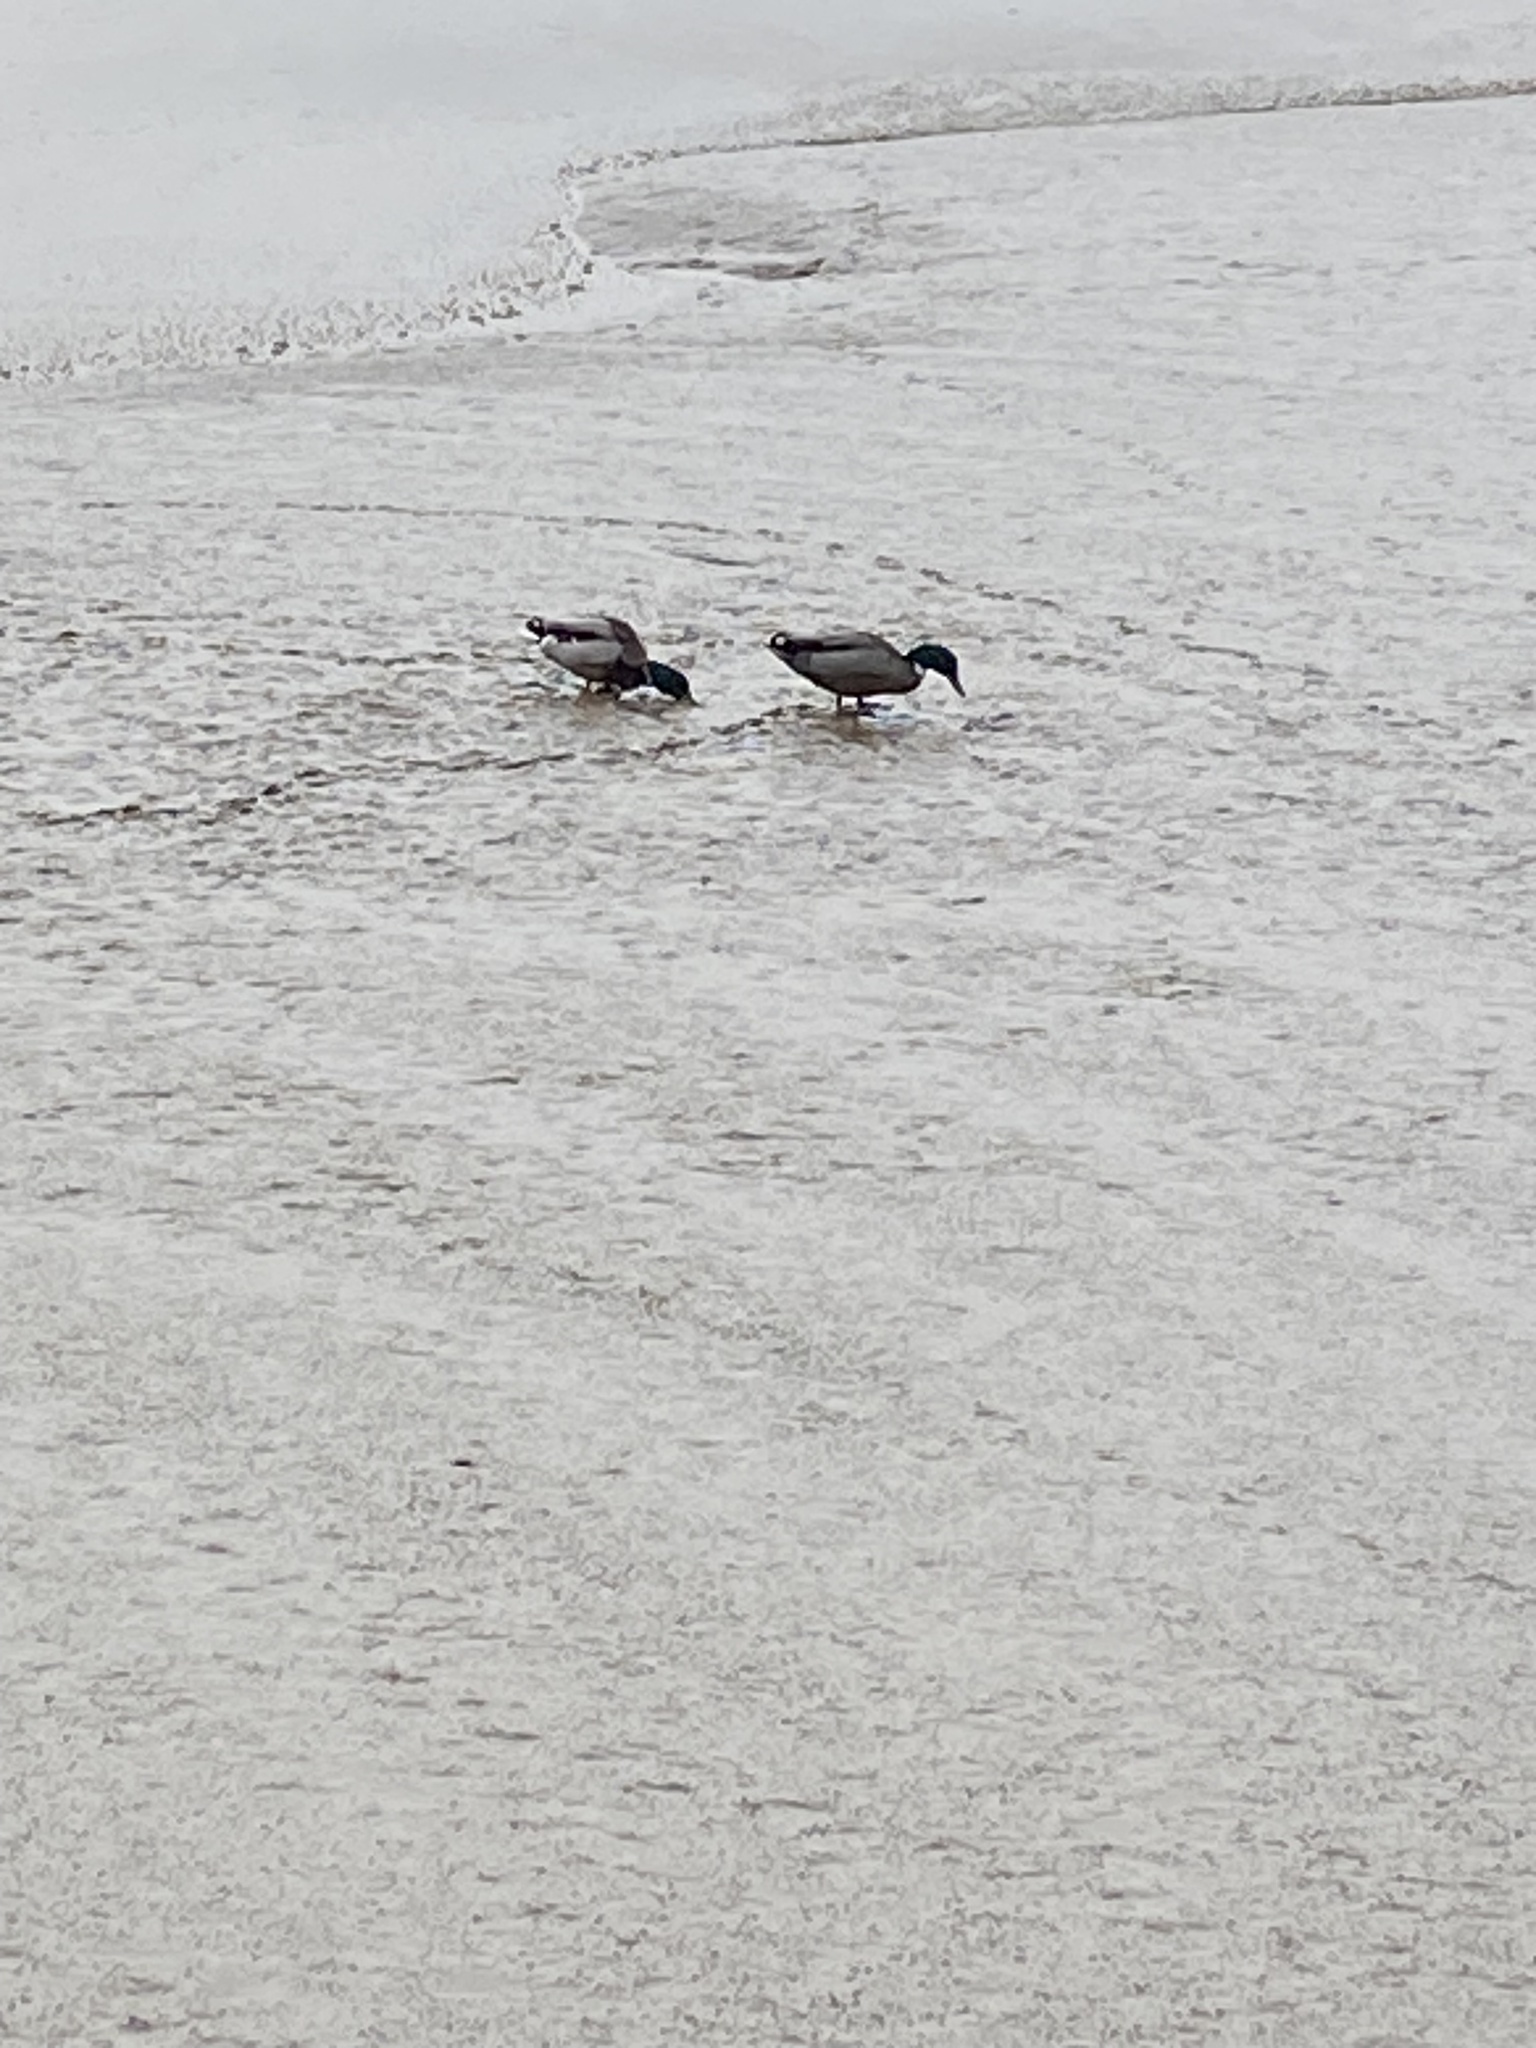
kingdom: Animalia
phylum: Chordata
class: Aves
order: Anseriformes
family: Anatidae
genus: Anas
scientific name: Anas platyrhynchos
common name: Mallard
